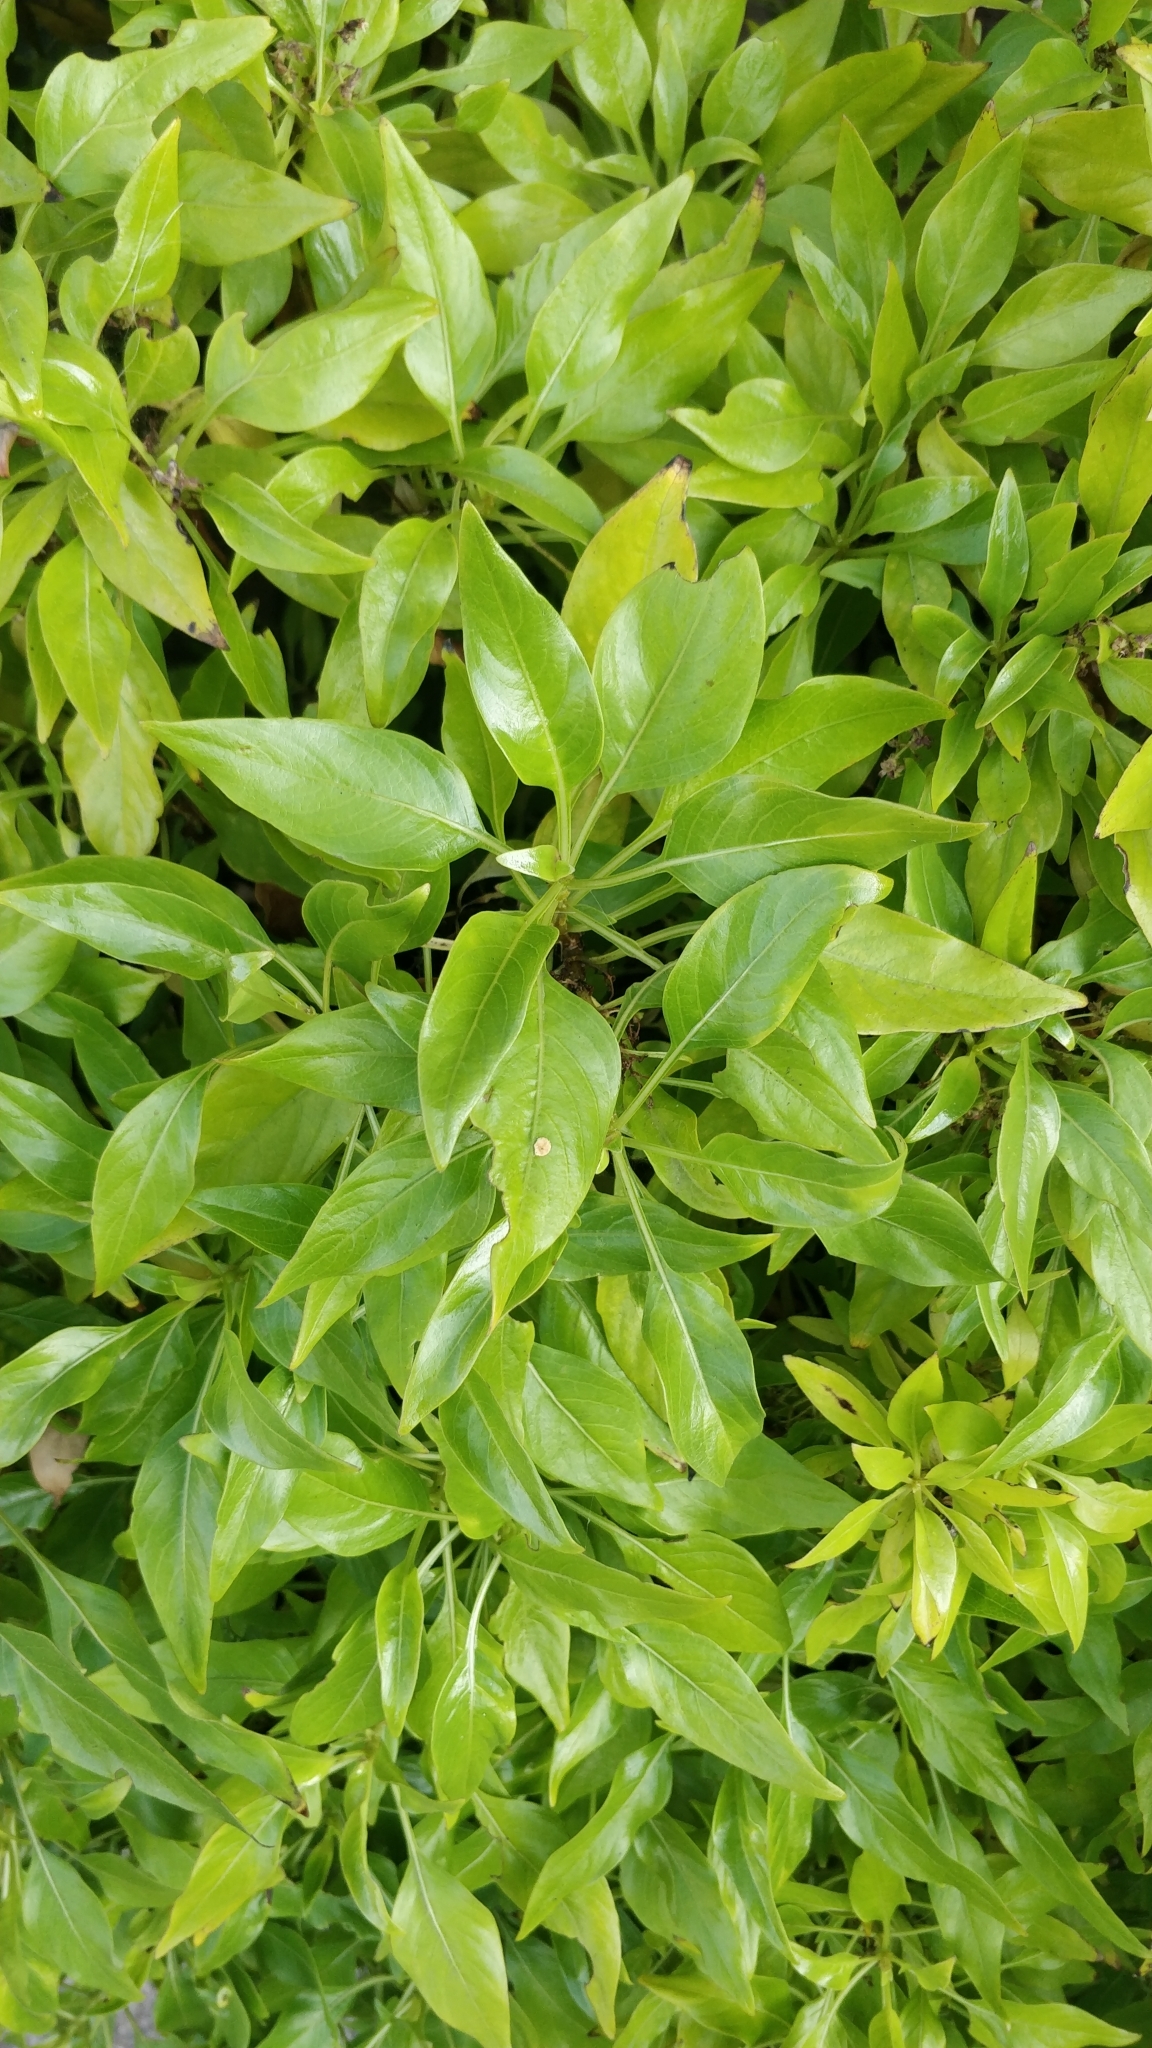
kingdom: Plantae
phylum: Tracheophyta
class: Magnoliopsida
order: Gentianales
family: Rubiaceae
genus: Phyllis
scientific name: Phyllis viscosa
